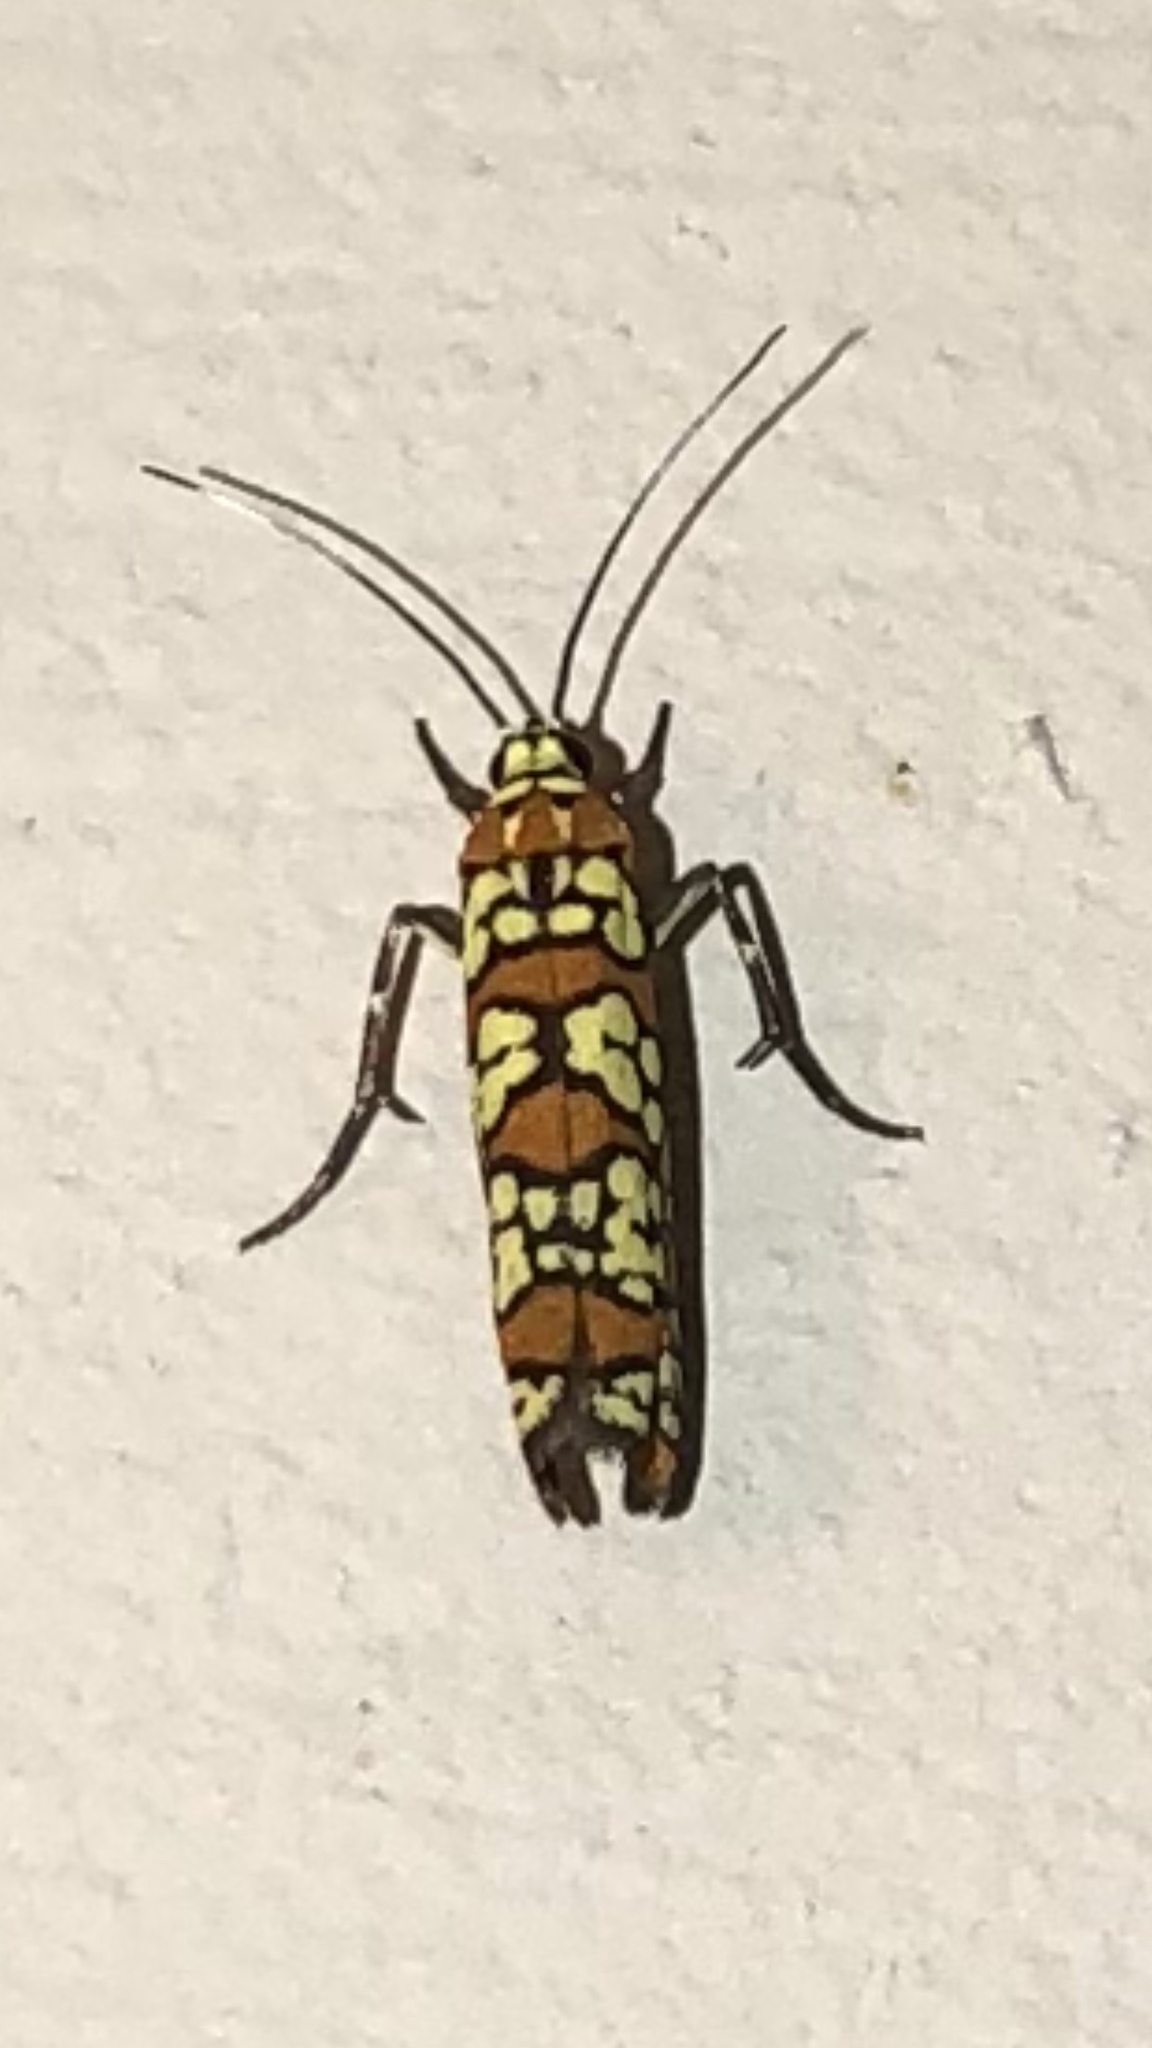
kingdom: Animalia
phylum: Arthropoda
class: Insecta
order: Lepidoptera
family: Attevidae
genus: Atteva
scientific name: Atteva punctella
